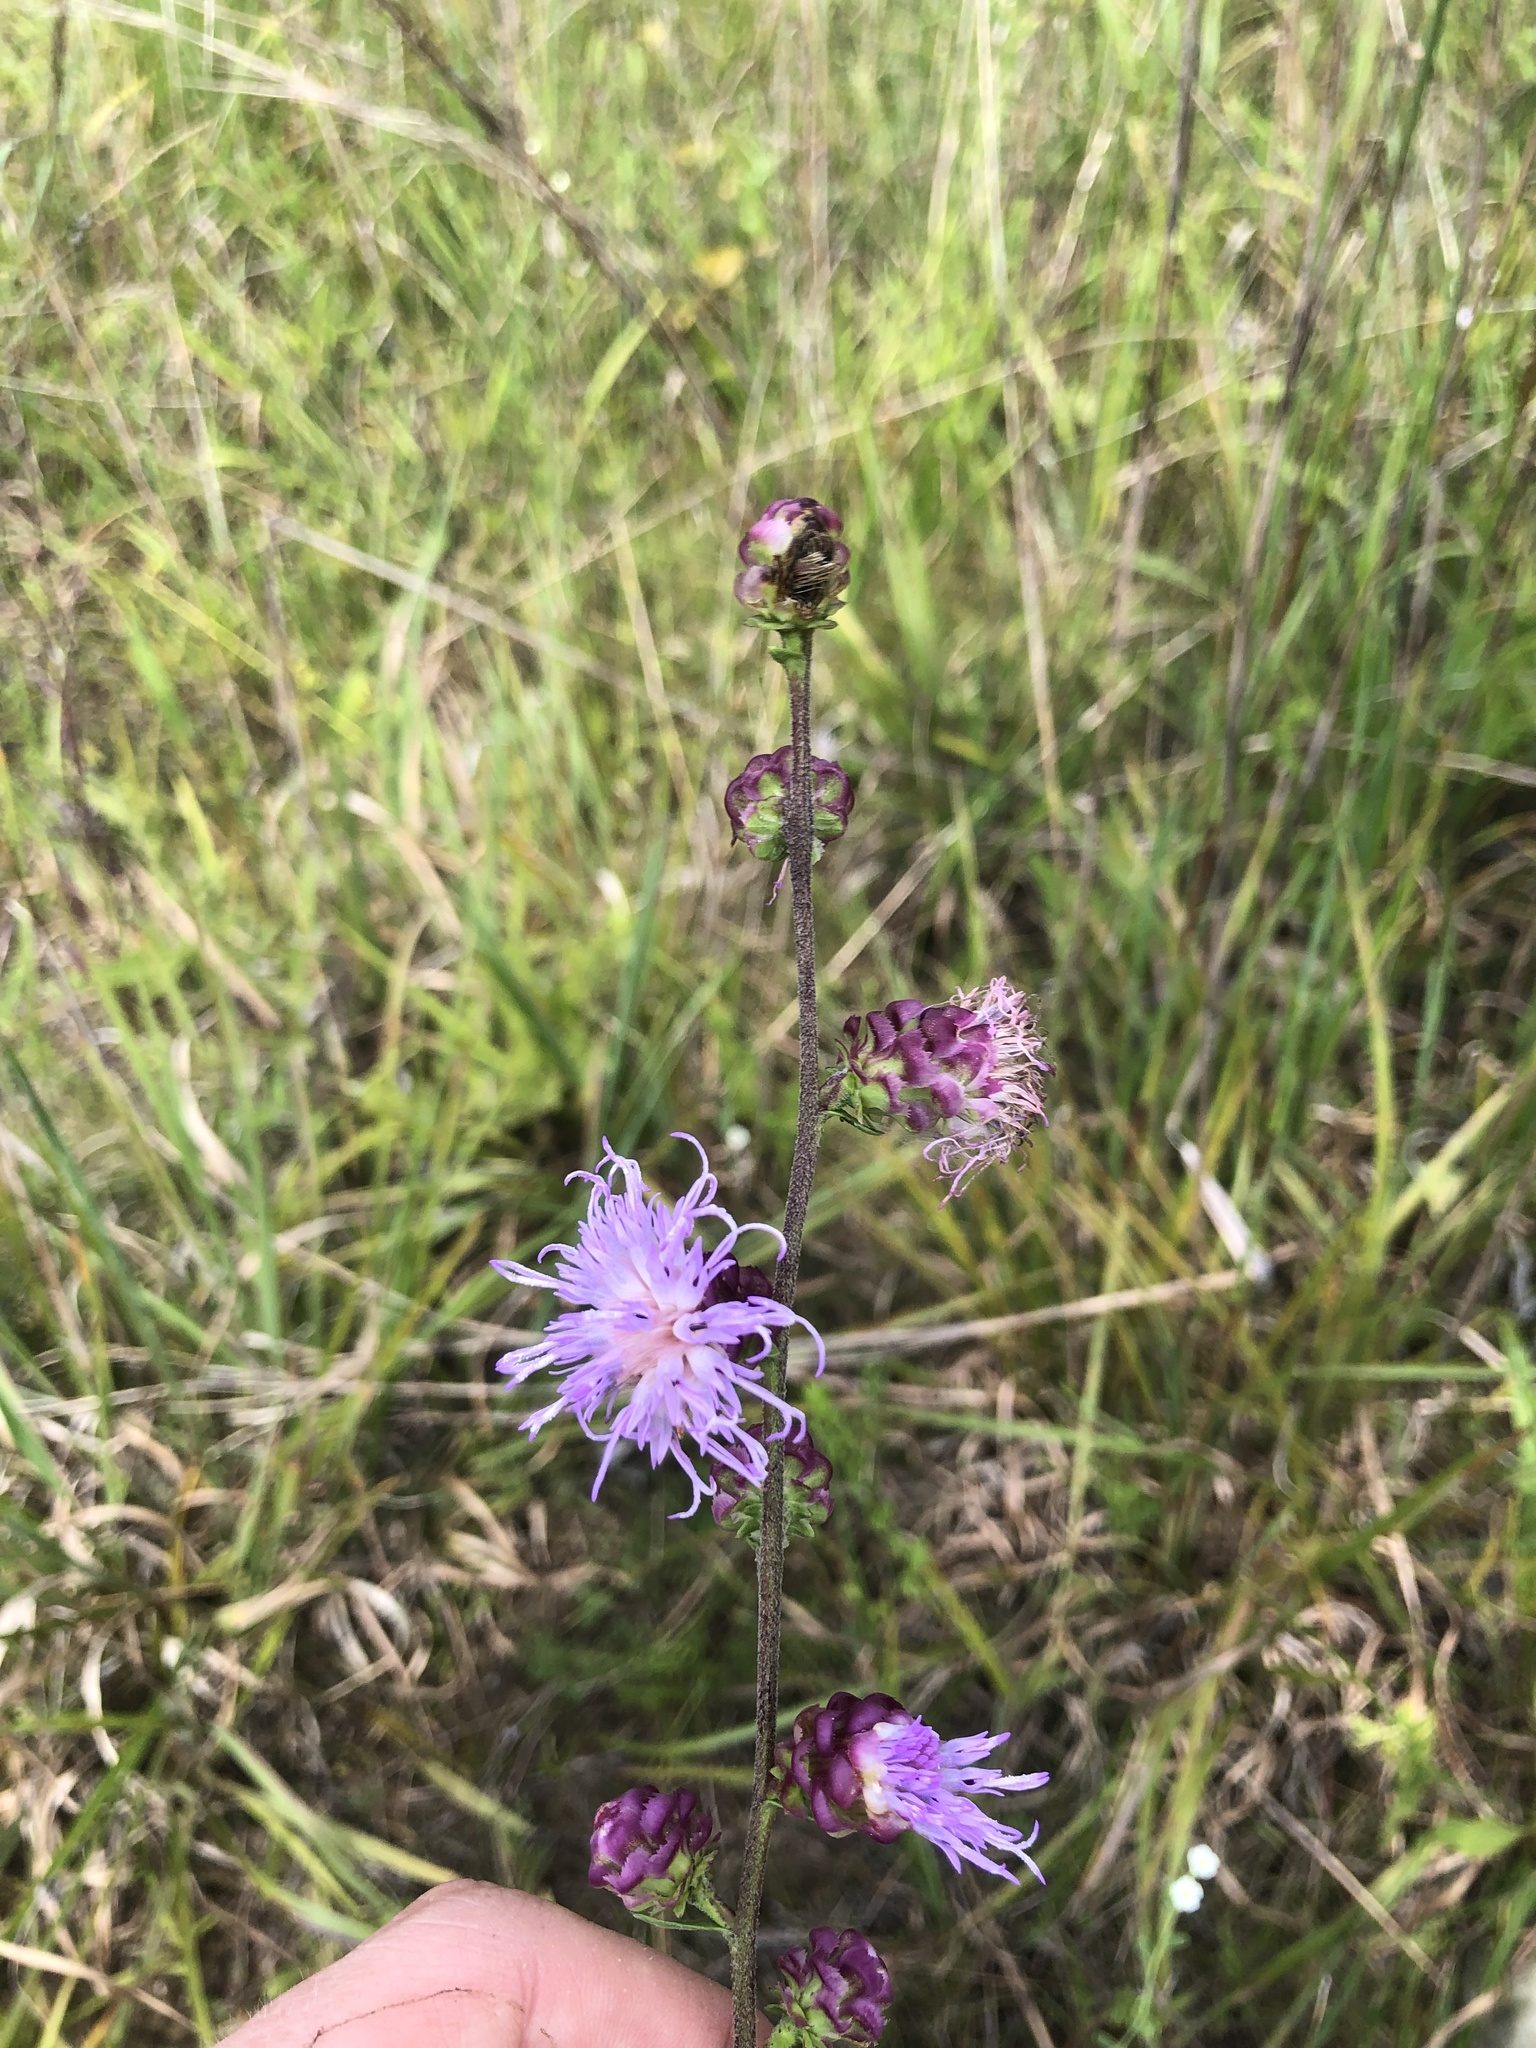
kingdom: Plantae
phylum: Tracheophyta
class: Magnoliopsida
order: Asterales
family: Asteraceae
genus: Liatris
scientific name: Liatris aspera
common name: Lacerate blazing-star
